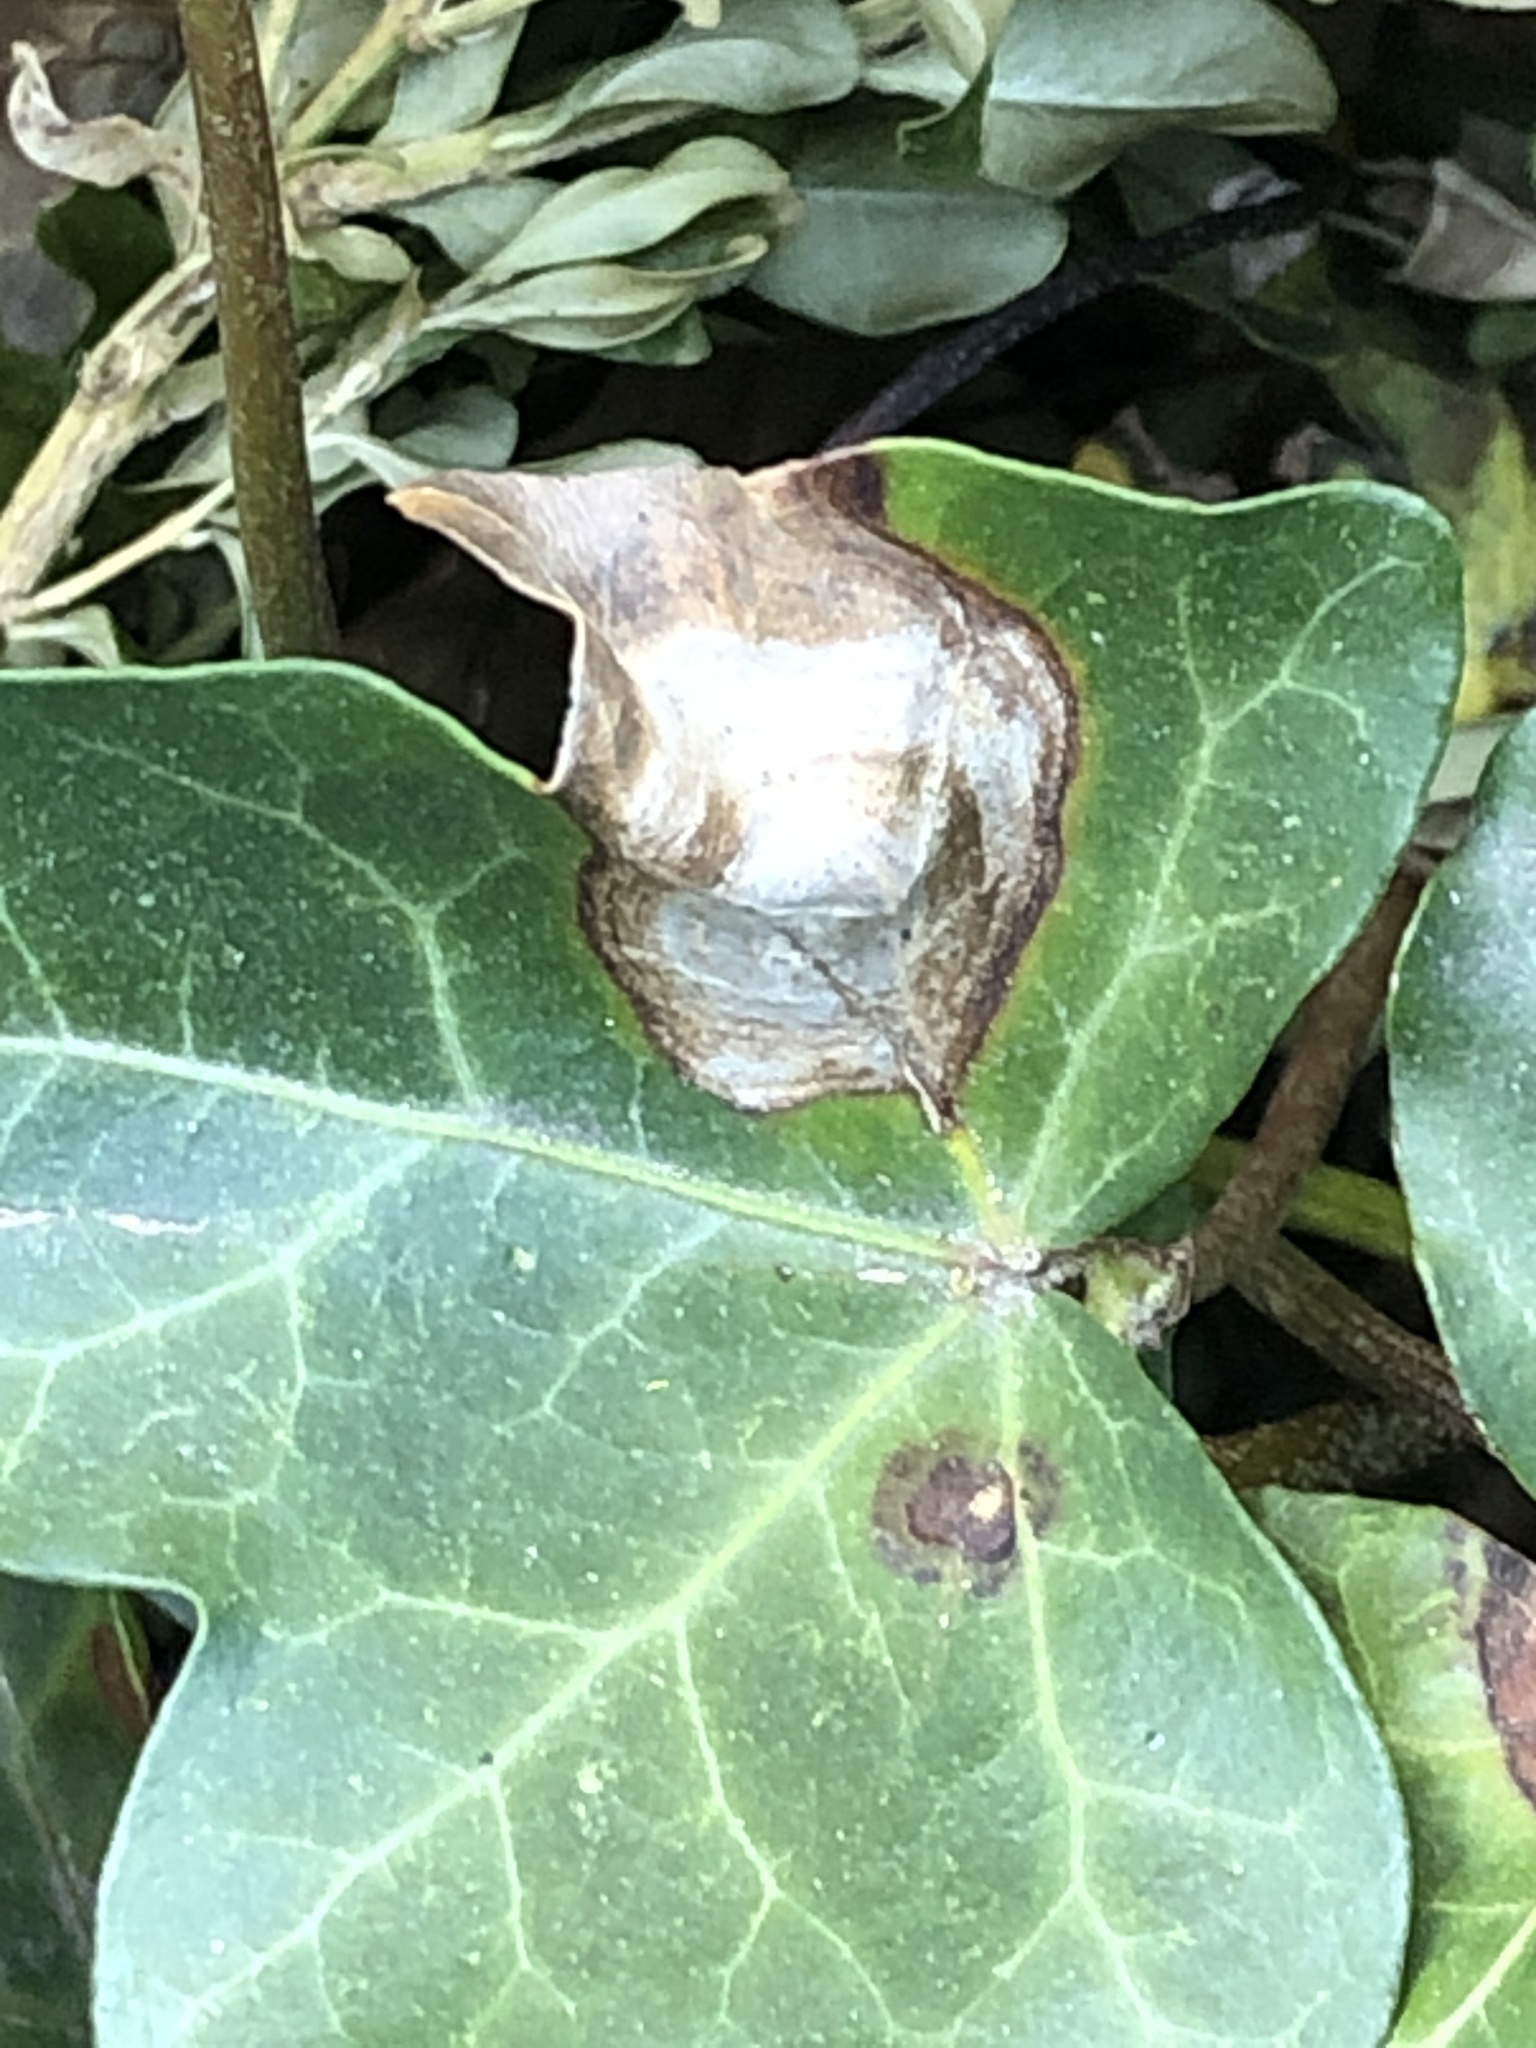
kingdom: Fungi
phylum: Ascomycota
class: Dothideomycetes
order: Pleosporales
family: Didymellaceae
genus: Boeremia
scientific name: Boeremia hedericola
